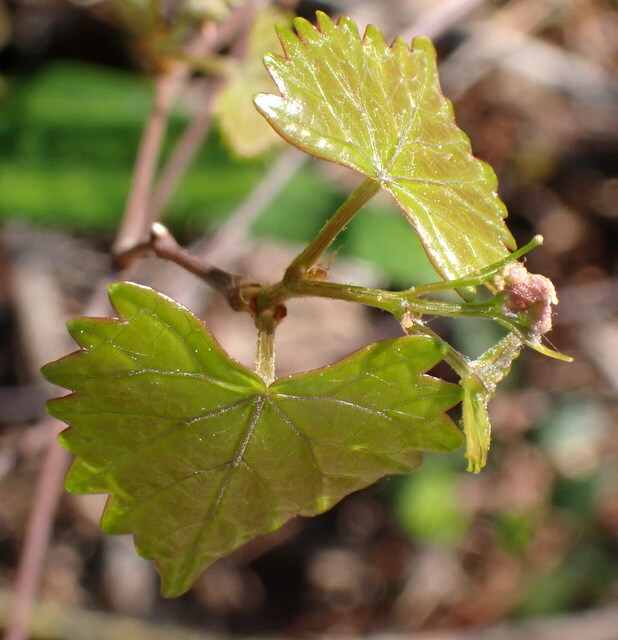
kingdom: Plantae
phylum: Tracheophyta
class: Magnoliopsida
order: Vitales
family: Vitaceae
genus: Vitis
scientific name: Vitis rotundifolia
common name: Muscadine grape
